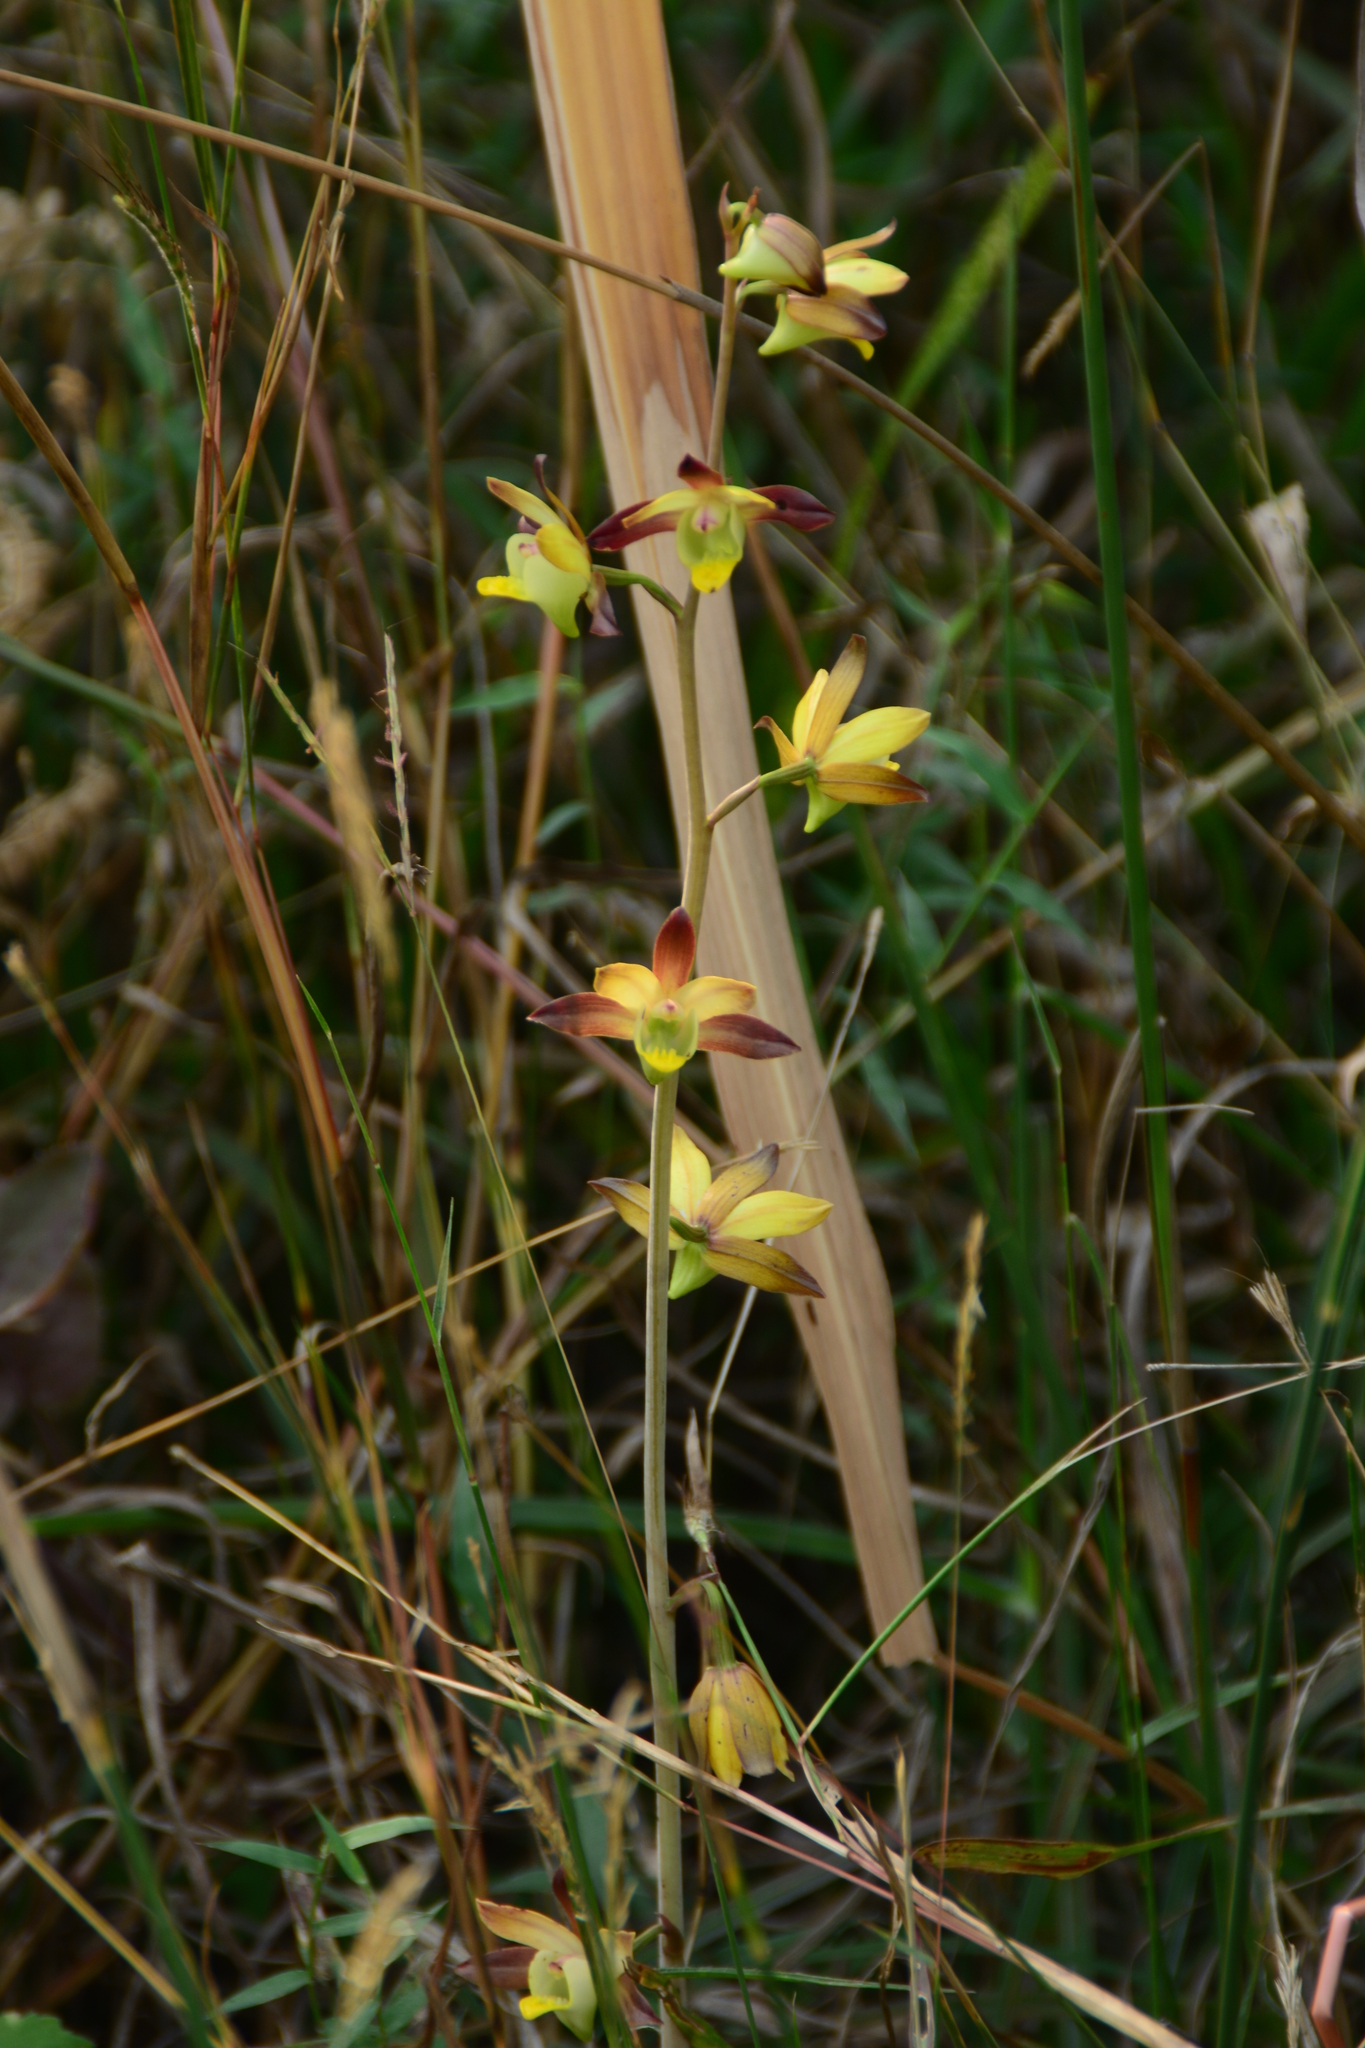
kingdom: Plantae
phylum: Tracheophyta
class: Liliopsida
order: Asparagales
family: Orchidaceae
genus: Eulophia
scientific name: Eulophia pratensis
